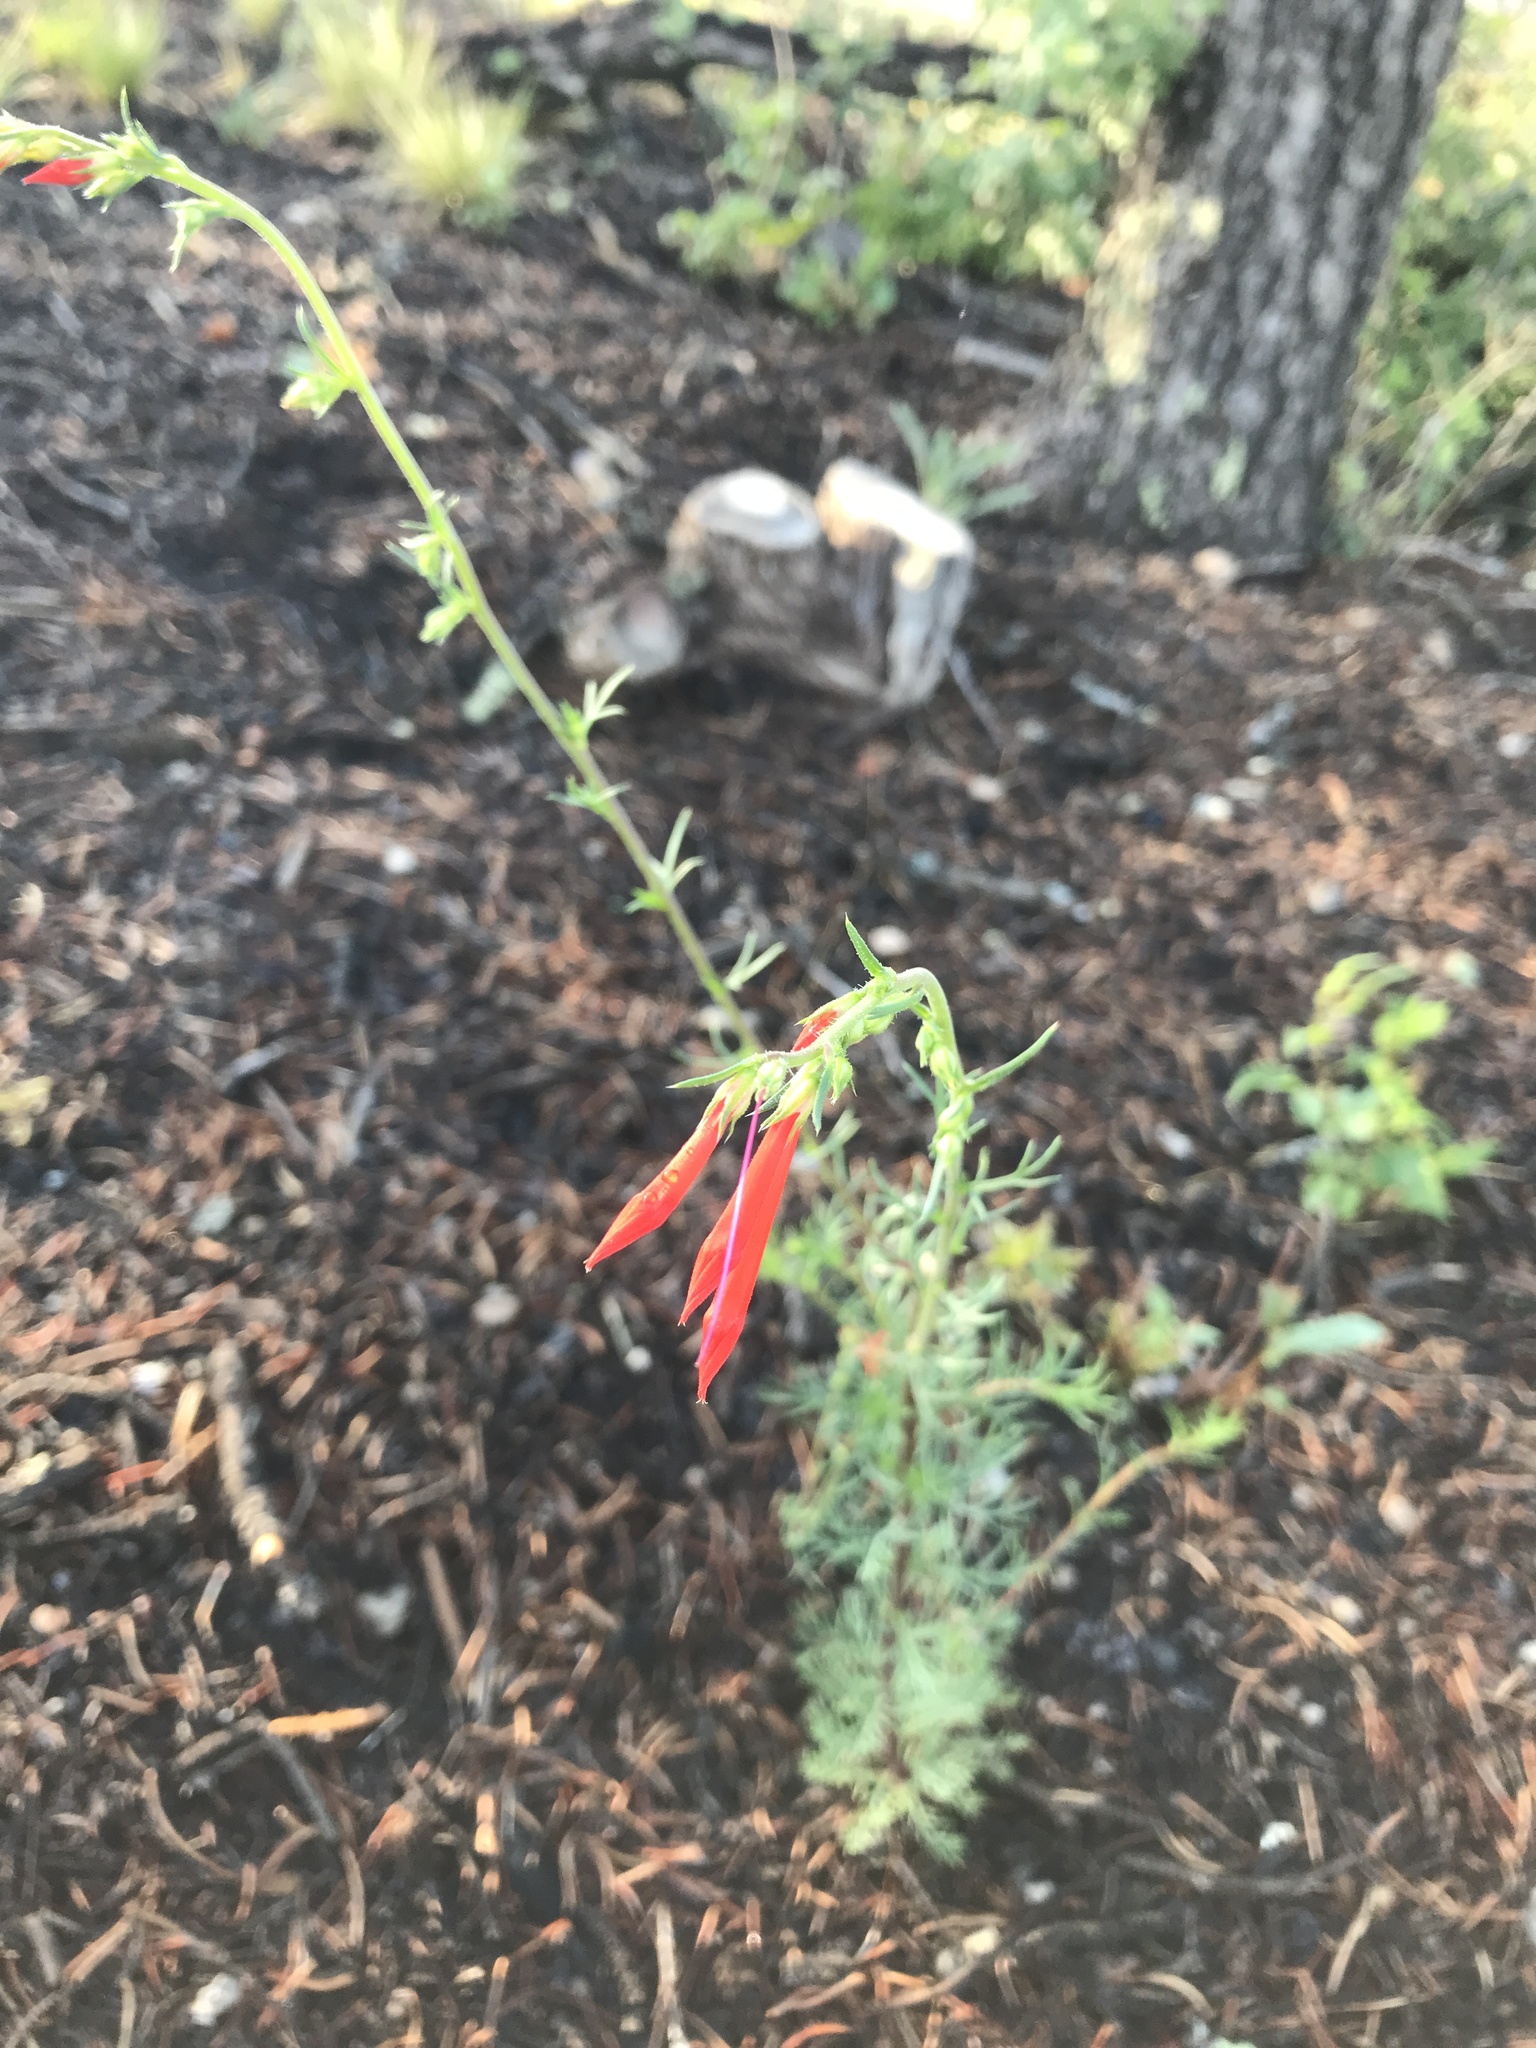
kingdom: Plantae
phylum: Tracheophyta
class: Magnoliopsida
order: Ericales
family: Polemoniaceae
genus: Ipomopsis
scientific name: Ipomopsis aggregata
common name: Scarlet gilia
